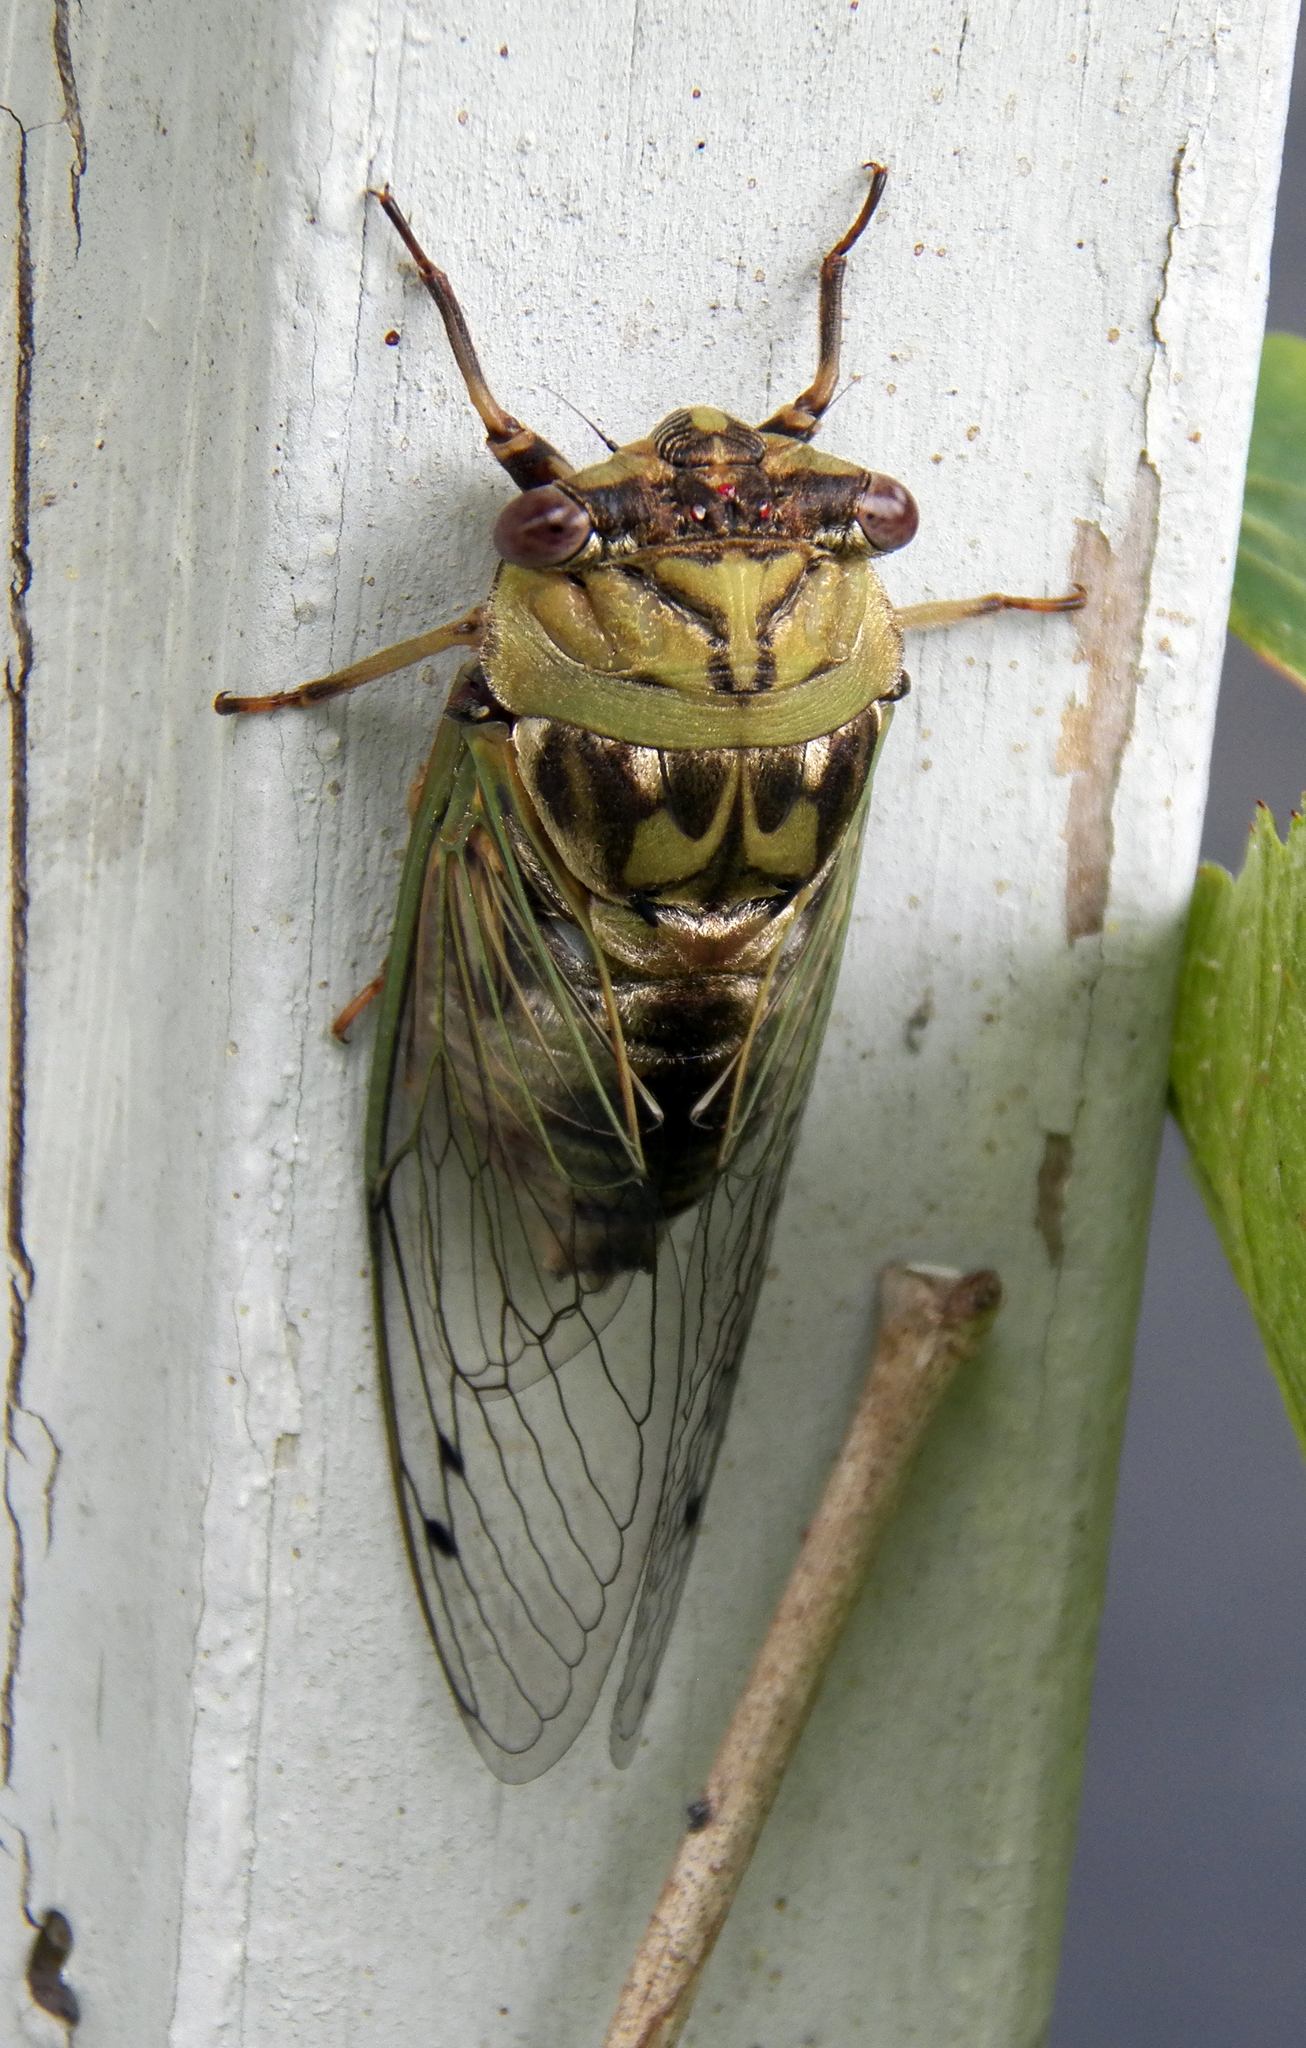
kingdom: Animalia
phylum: Arthropoda
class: Insecta
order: Hemiptera
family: Cicadidae
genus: Megatibicen
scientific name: Megatibicen resh
